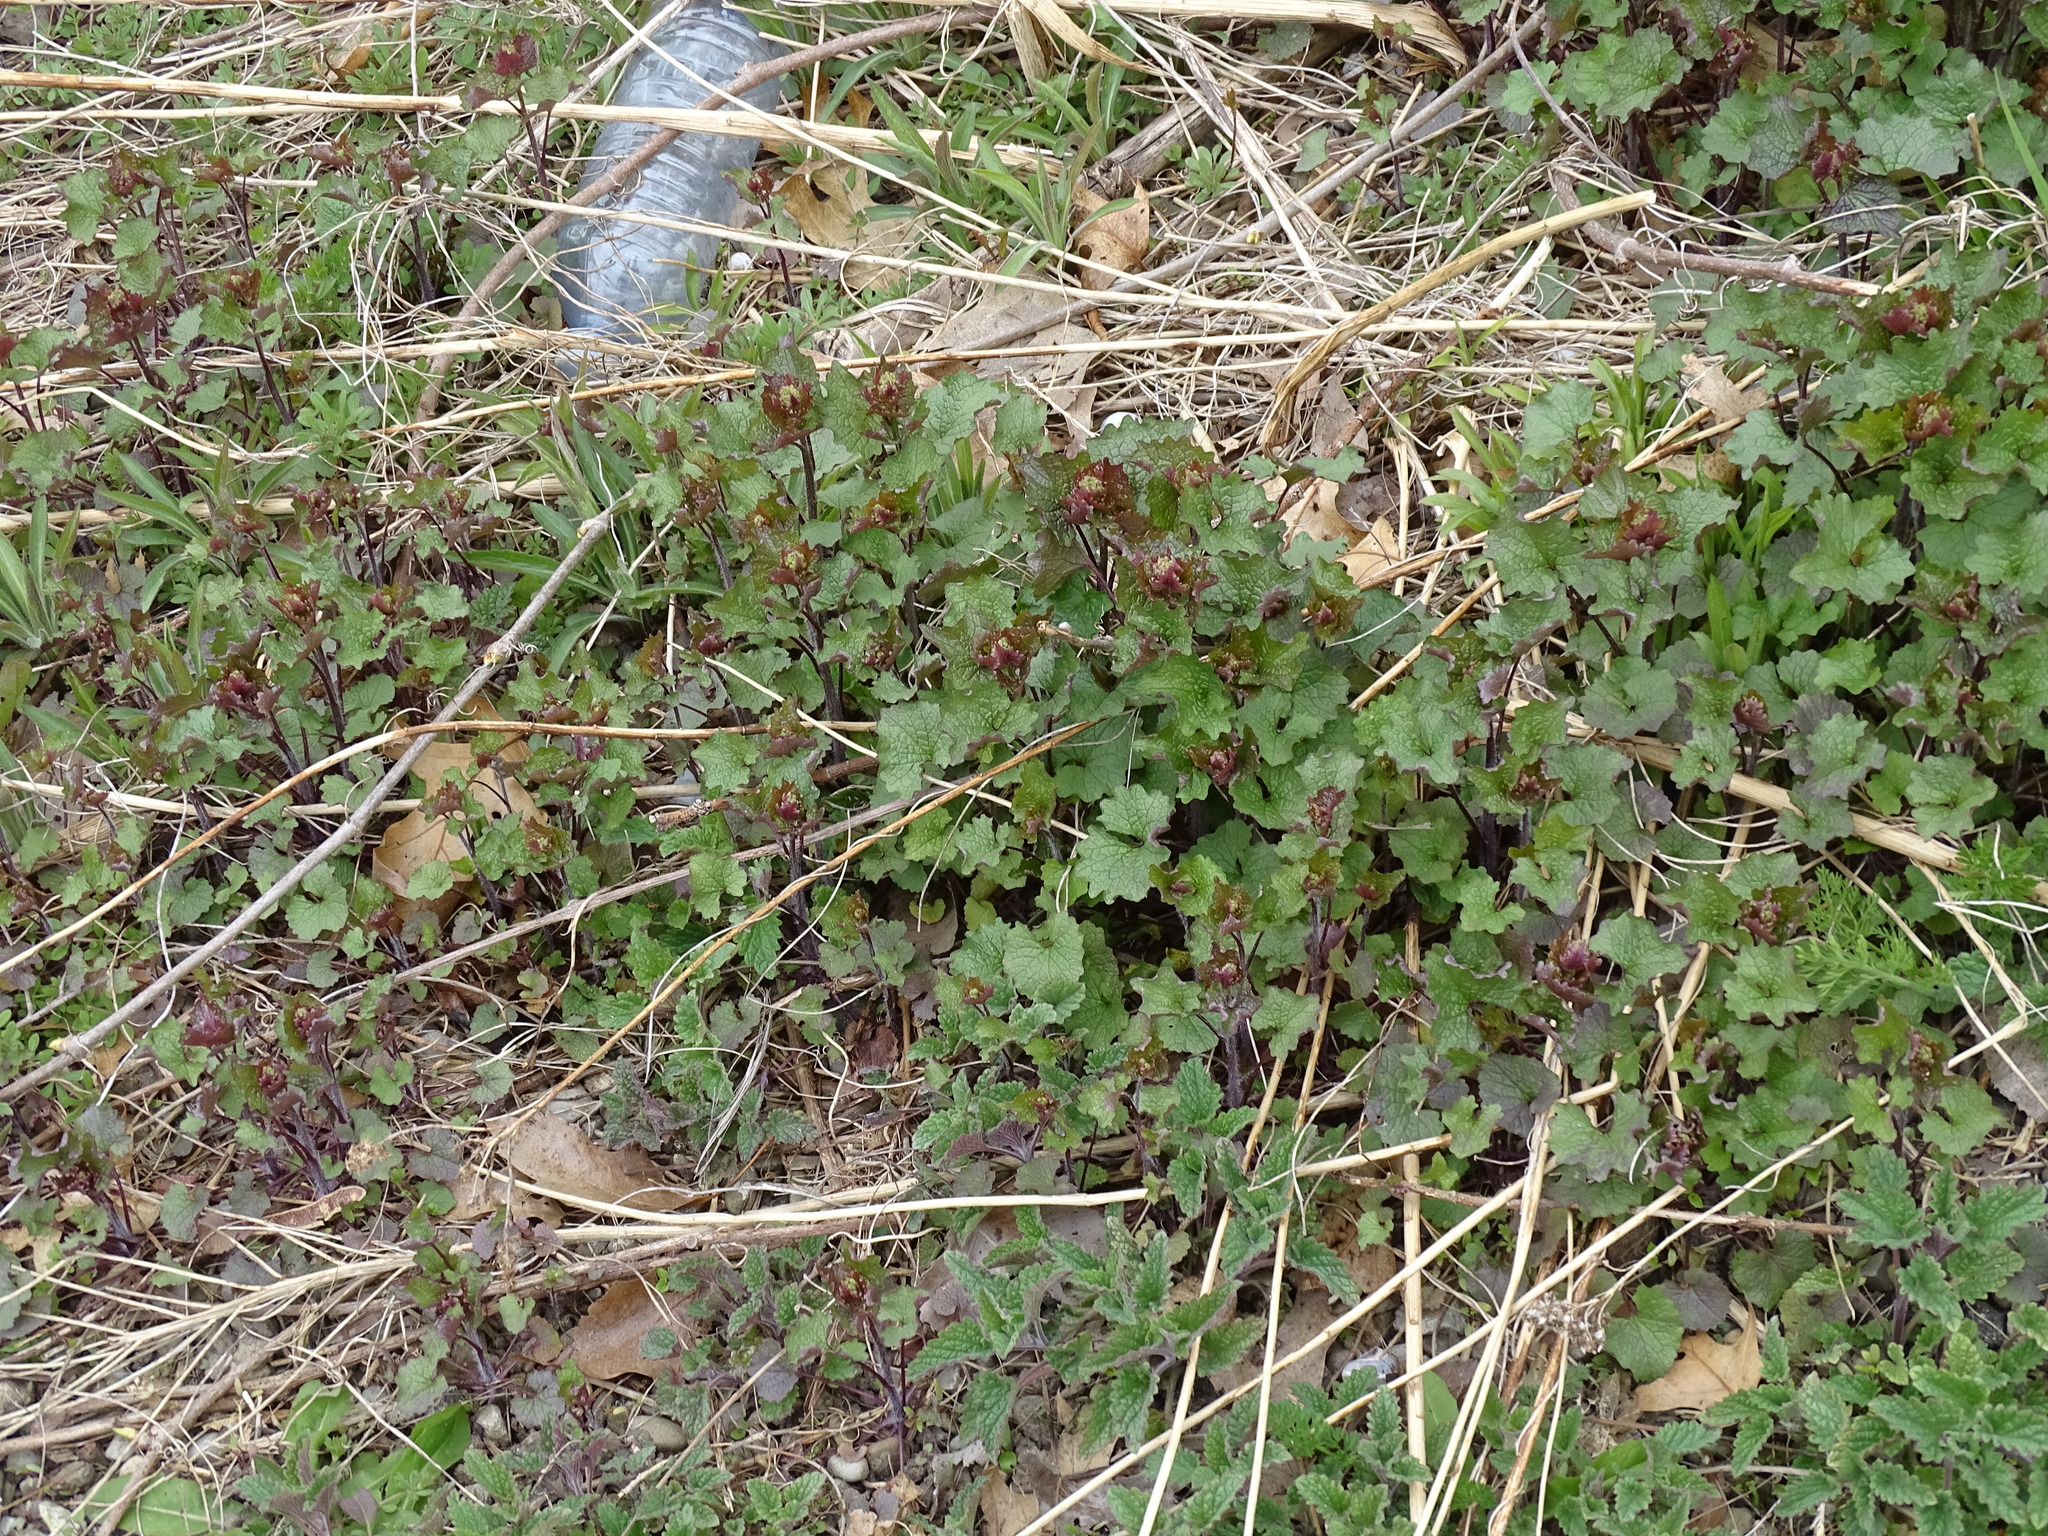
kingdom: Plantae
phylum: Tracheophyta
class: Magnoliopsida
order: Brassicales
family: Brassicaceae
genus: Alliaria
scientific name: Alliaria petiolata
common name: Garlic mustard
